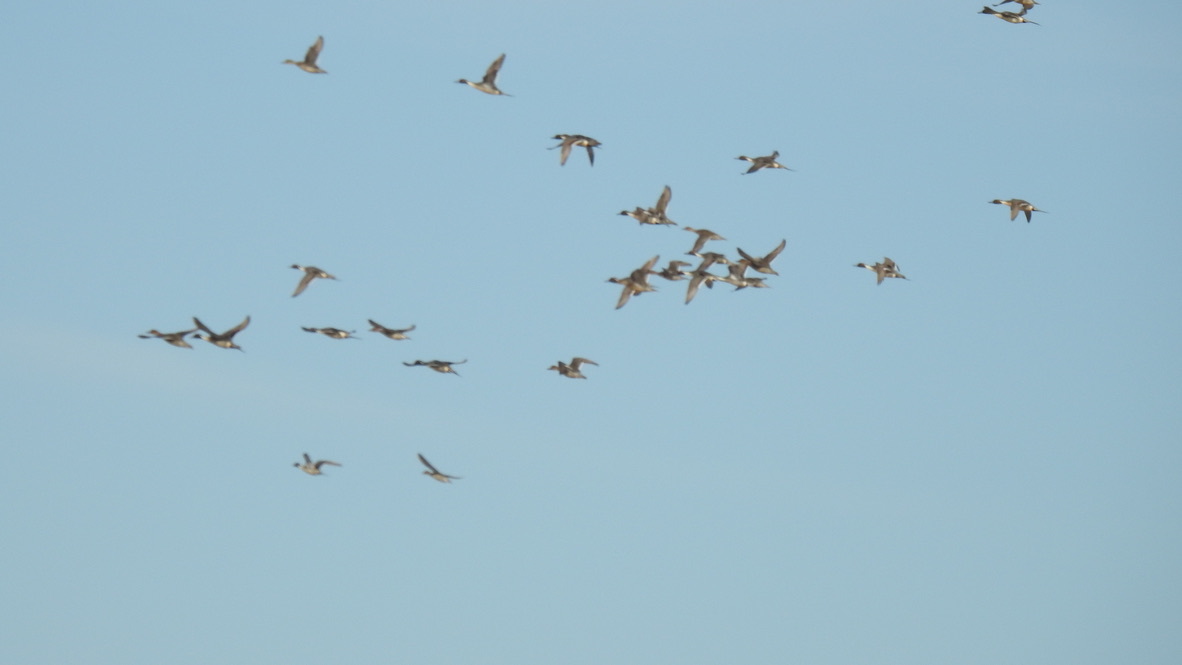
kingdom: Animalia
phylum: Chordata
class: Aves
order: Anseriformes
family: Anatidae
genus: Anas
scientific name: Anas acuta
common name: Northern pintail
